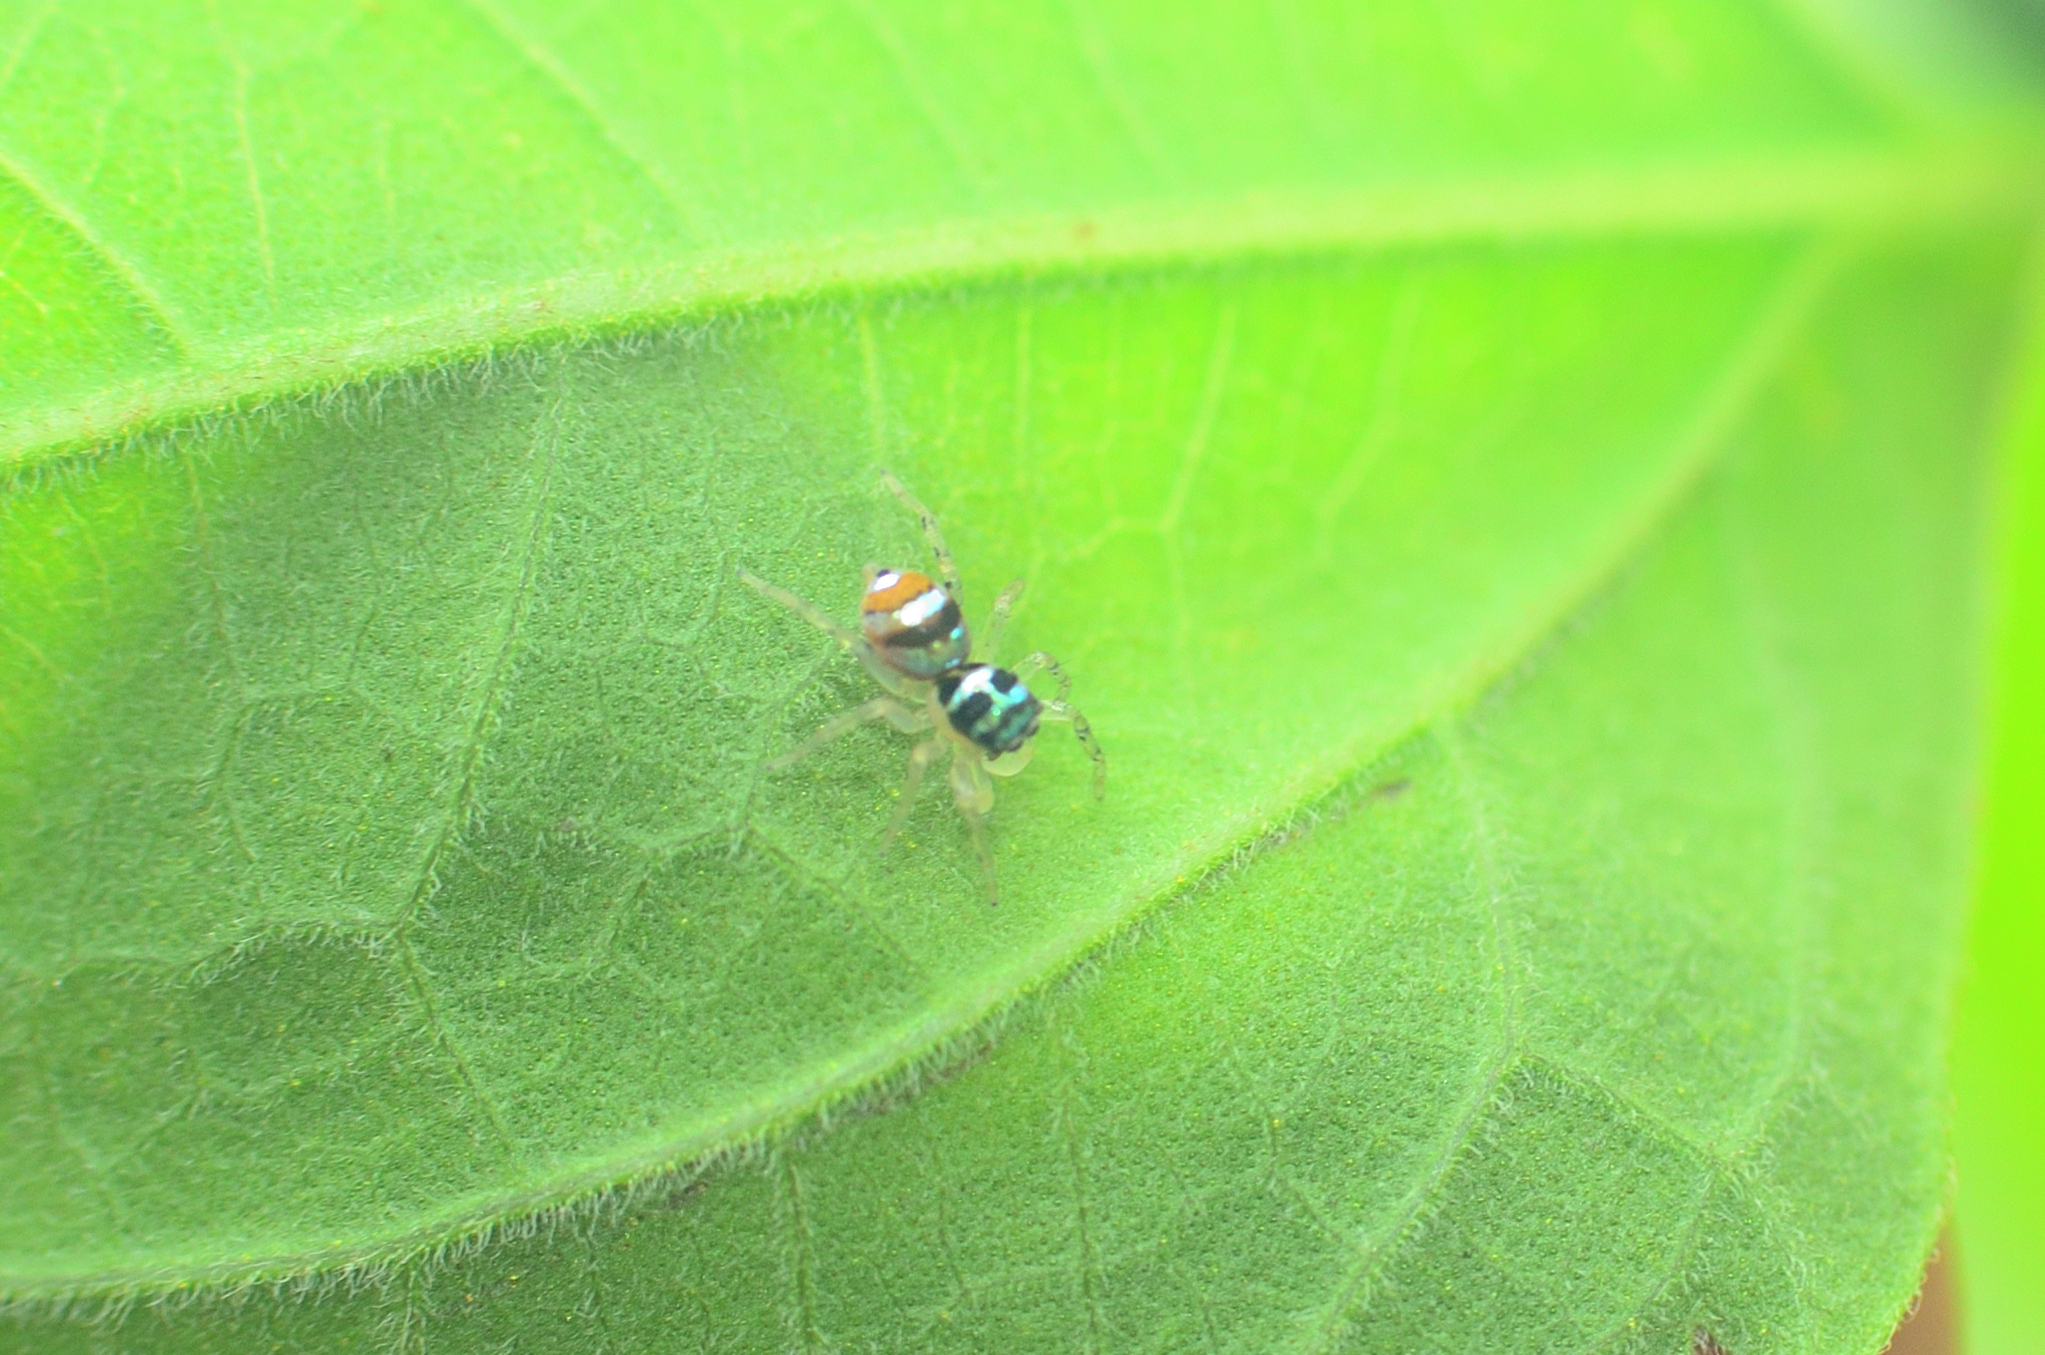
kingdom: Animalia
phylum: Arthropoda
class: Arachnida
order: Araneae
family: Salticidae
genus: Phintella
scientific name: Phintella vittata
